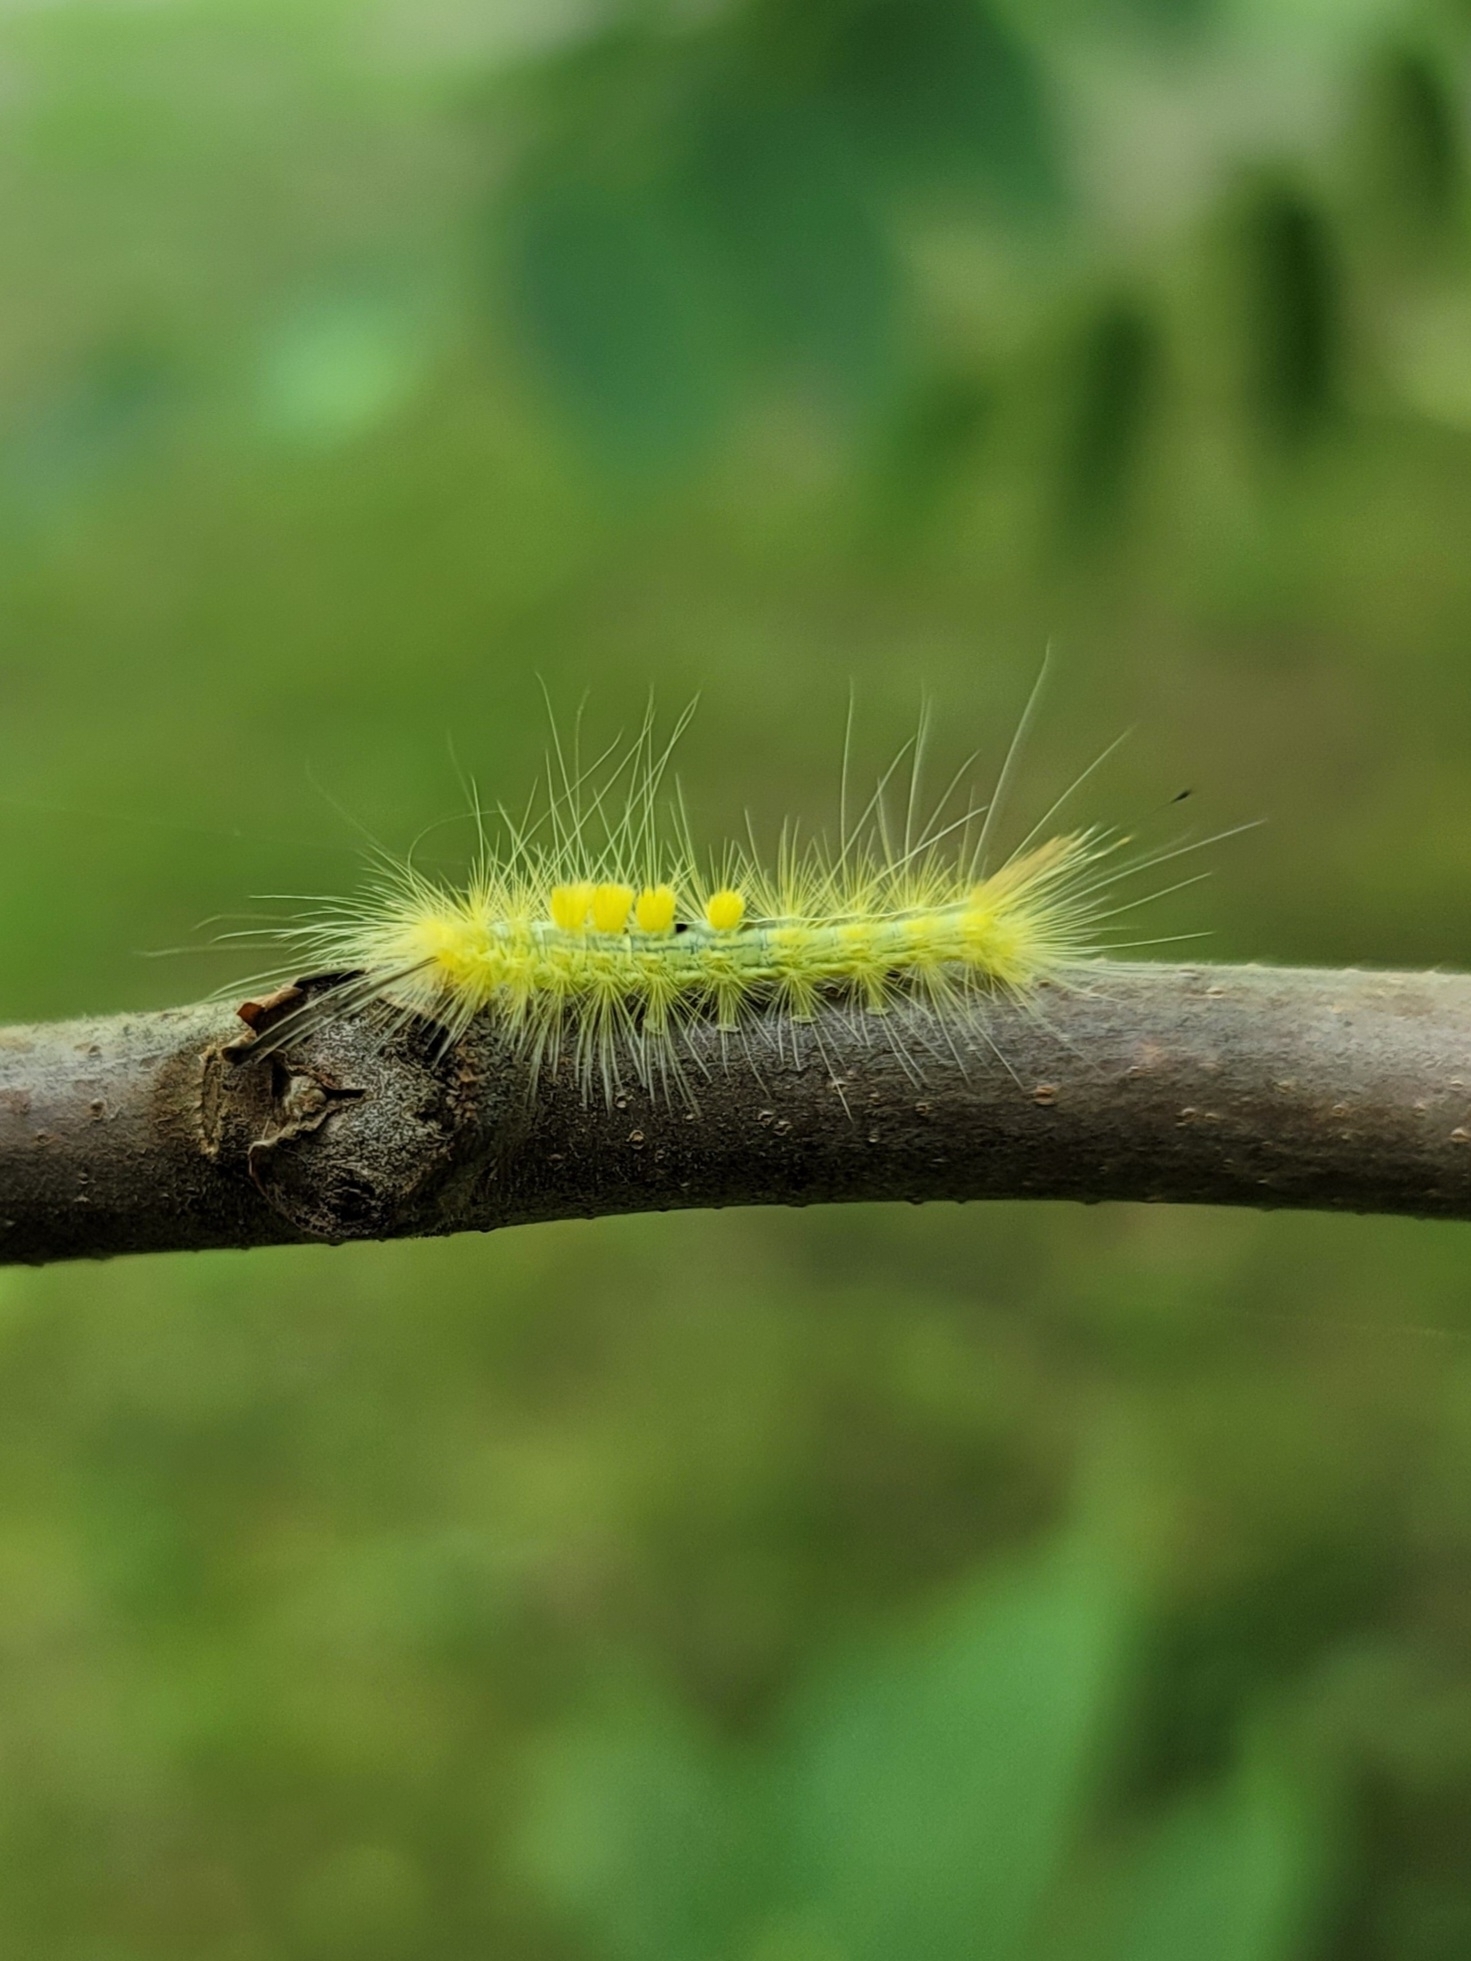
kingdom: Animalia
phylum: Arthropoda
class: Insecta
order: Lepidoptera
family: Erebidae
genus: Orgyia
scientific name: Orgyia definita
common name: Definite tussock moth
